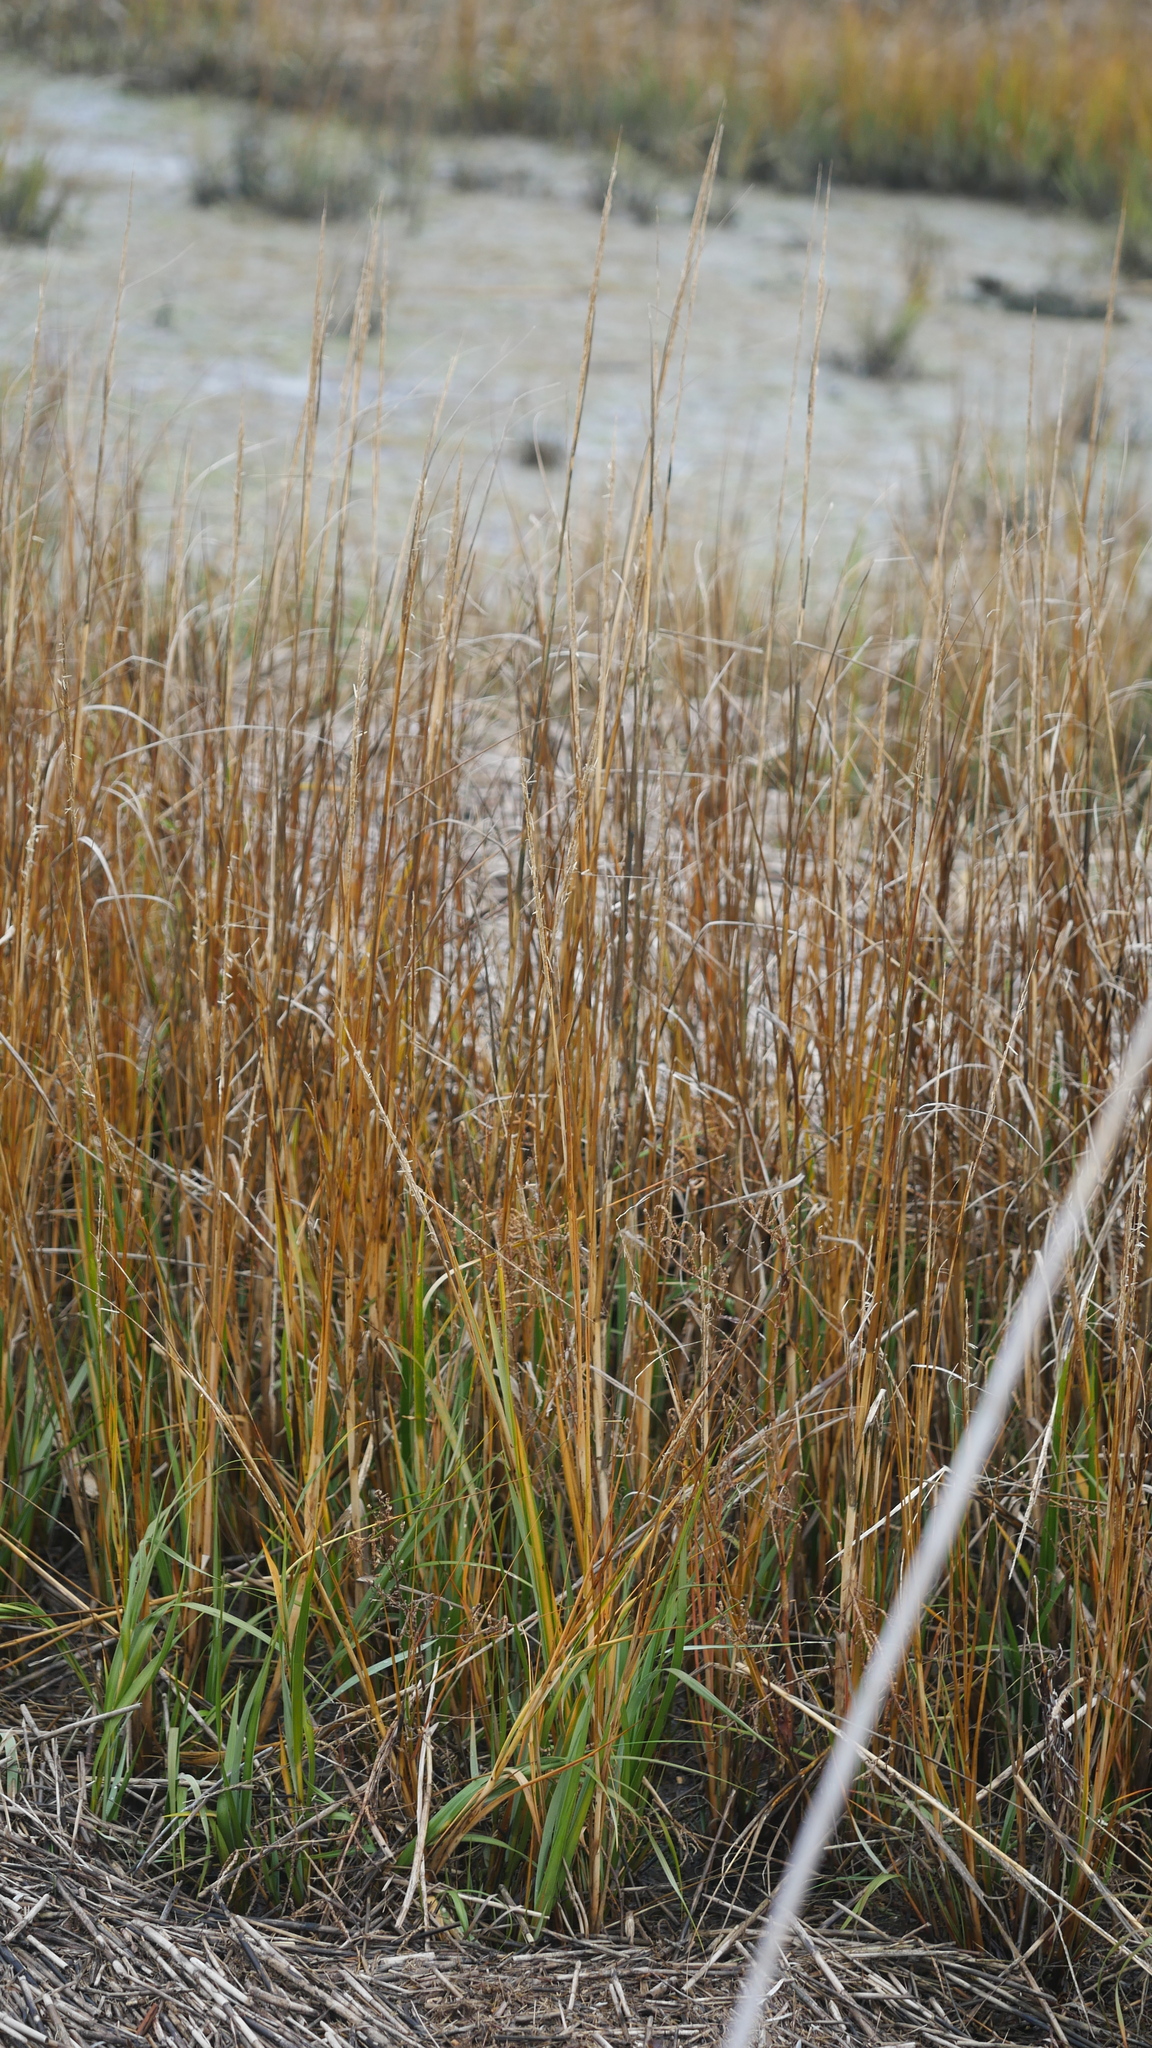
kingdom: Plantae
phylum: Tracheophyta
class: Liliopsida
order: Poales
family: Poaceae
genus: Sporobolus
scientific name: Sporobolus alterniflorus
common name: Atlantic cordgrass
